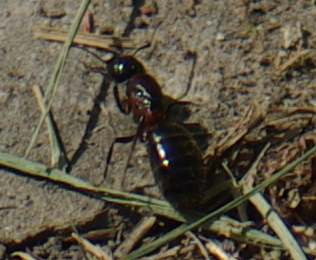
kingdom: Animalia
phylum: Arthropoda
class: Insecta
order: Hymenoptera
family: Formicidae
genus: Camponotus
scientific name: Camponotus herculeanus
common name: Hercules ant
